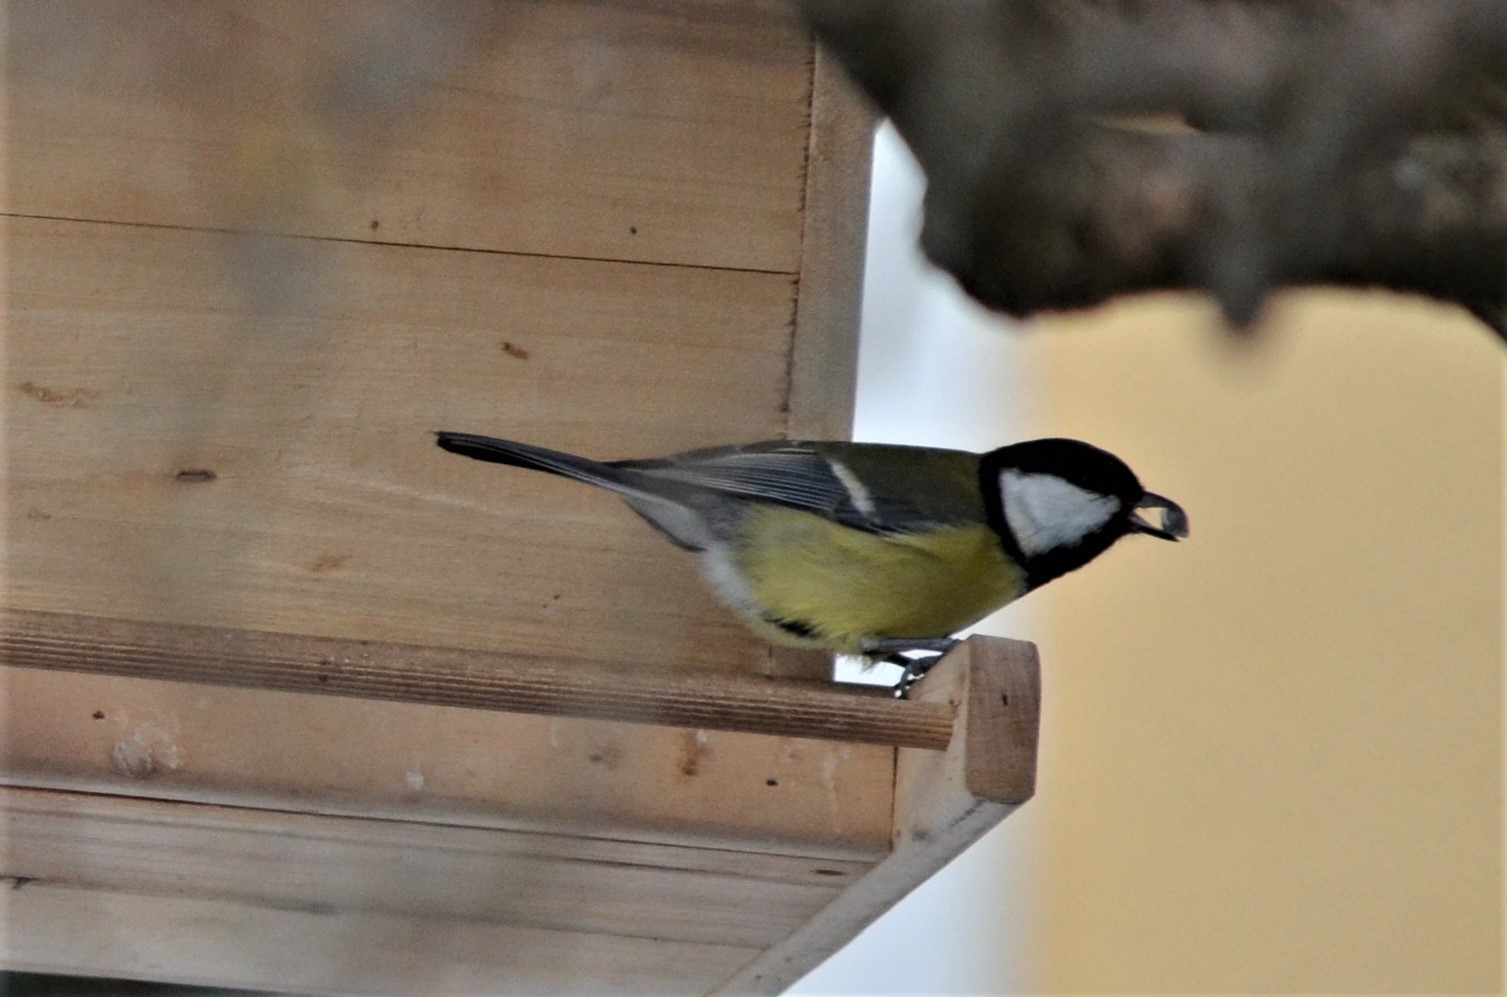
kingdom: Animalia
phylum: Chordata
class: Aves
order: Passeriformes
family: Paridae
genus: Parus
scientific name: Parus major
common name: Great tit
